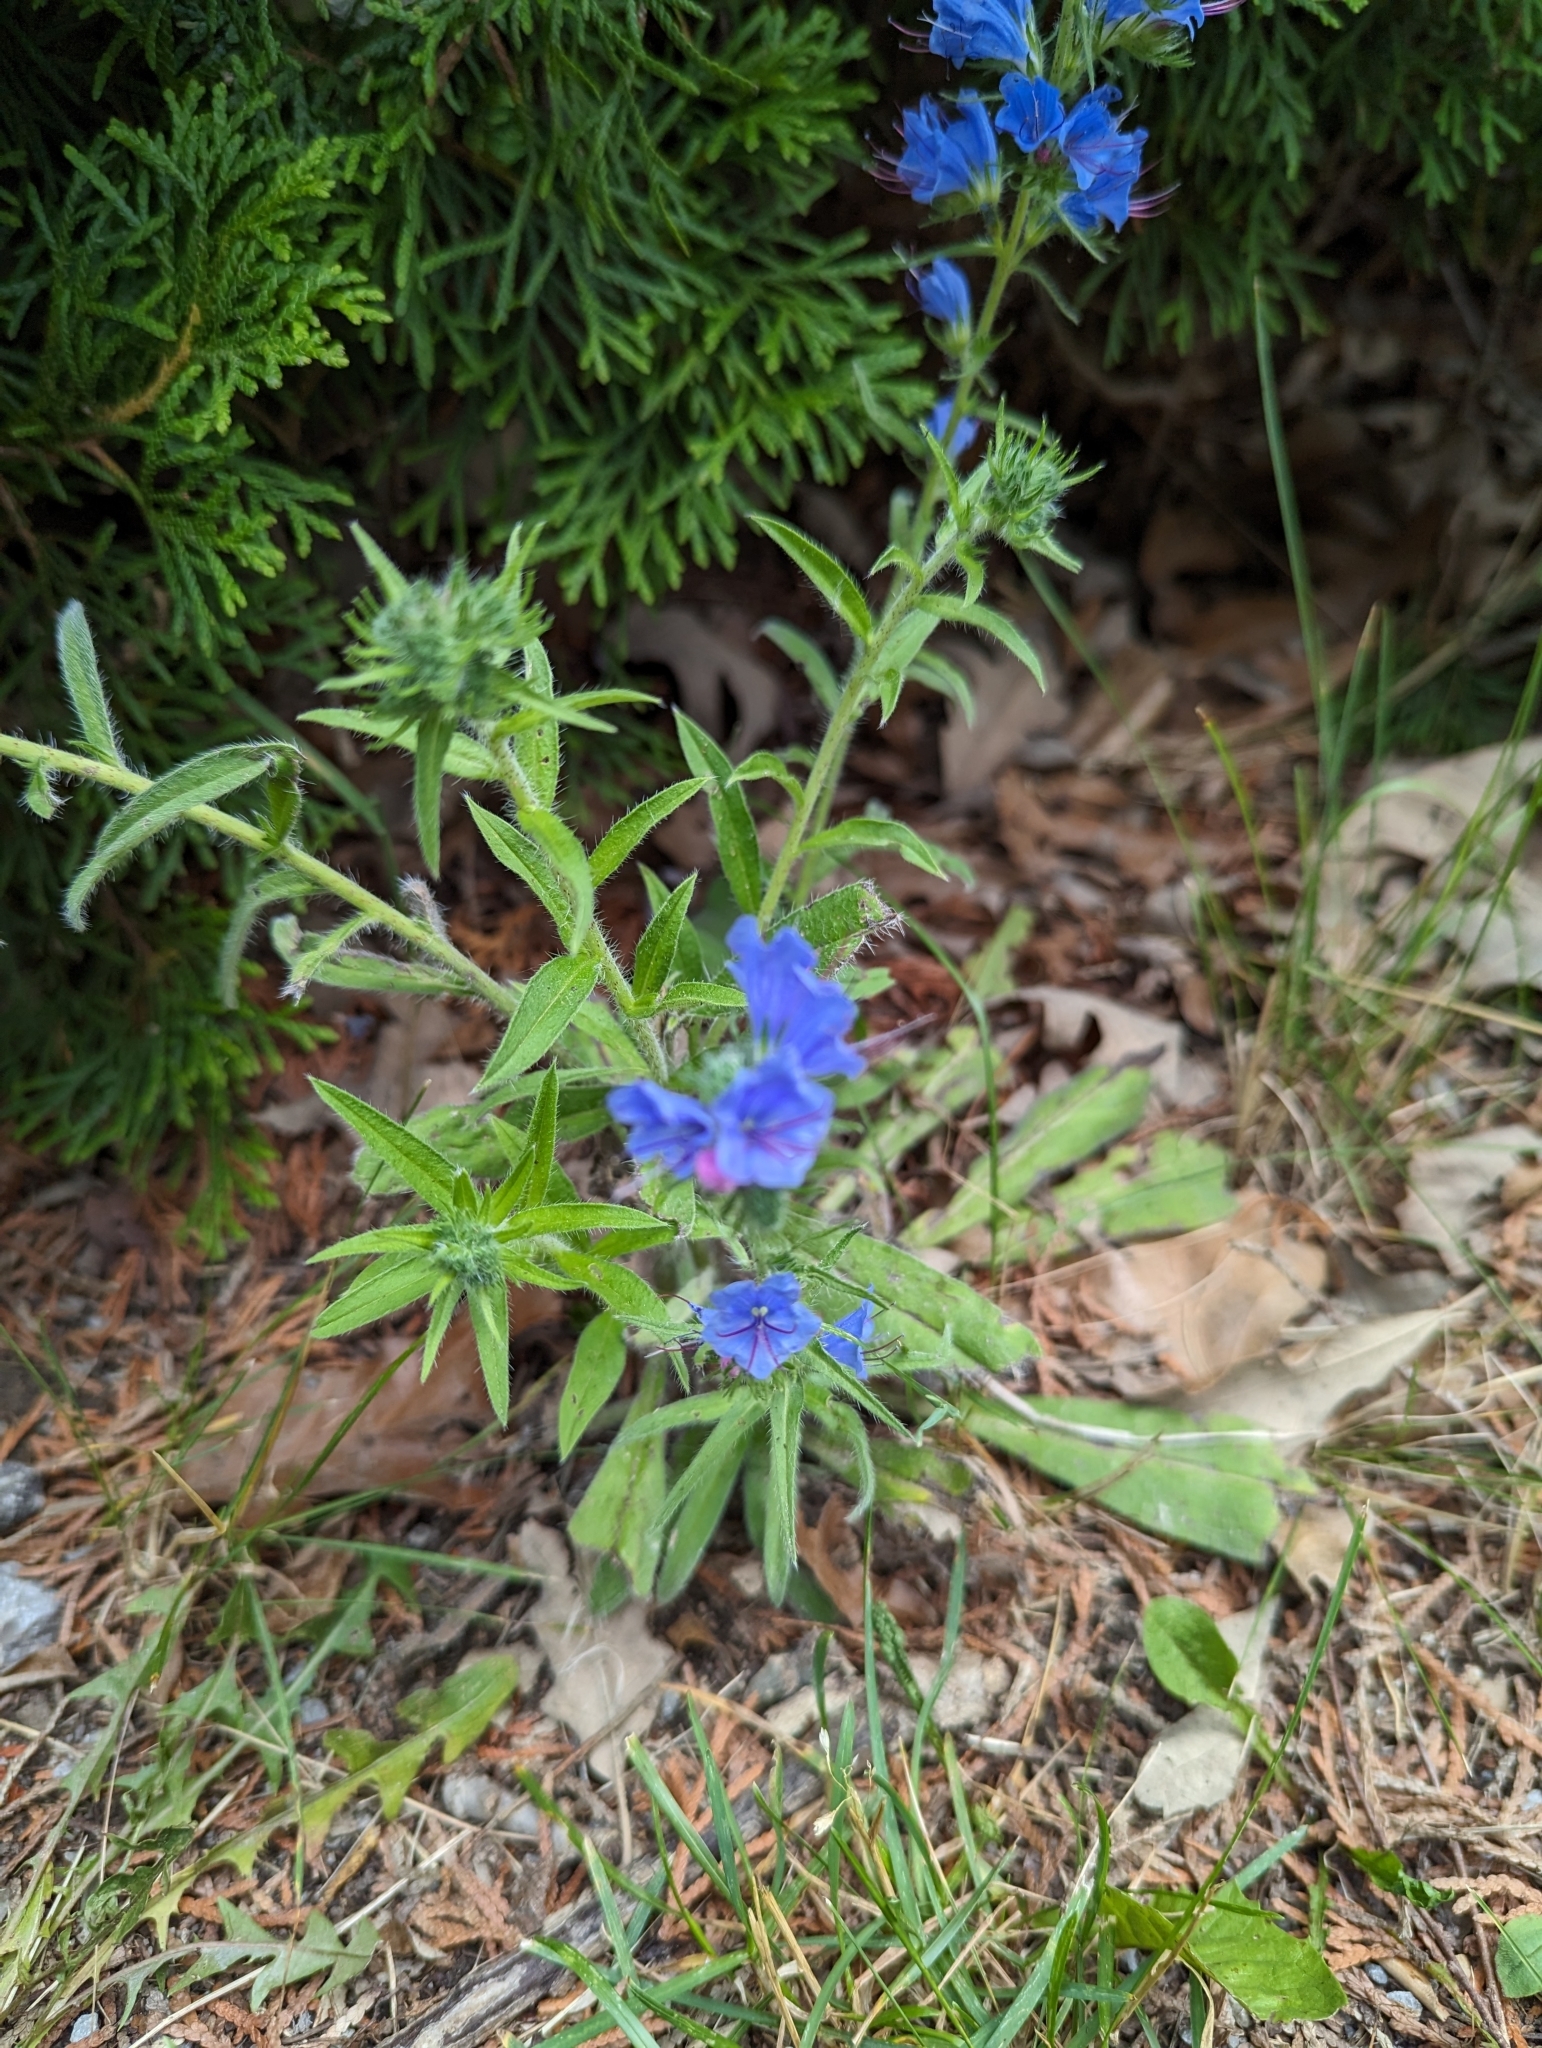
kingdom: Plantae
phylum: Tracheophyta
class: Magnoliopsida
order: Boraginales
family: Boraginaceae
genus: Echium
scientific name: Echium vulgare
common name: Common viper's bugloss
